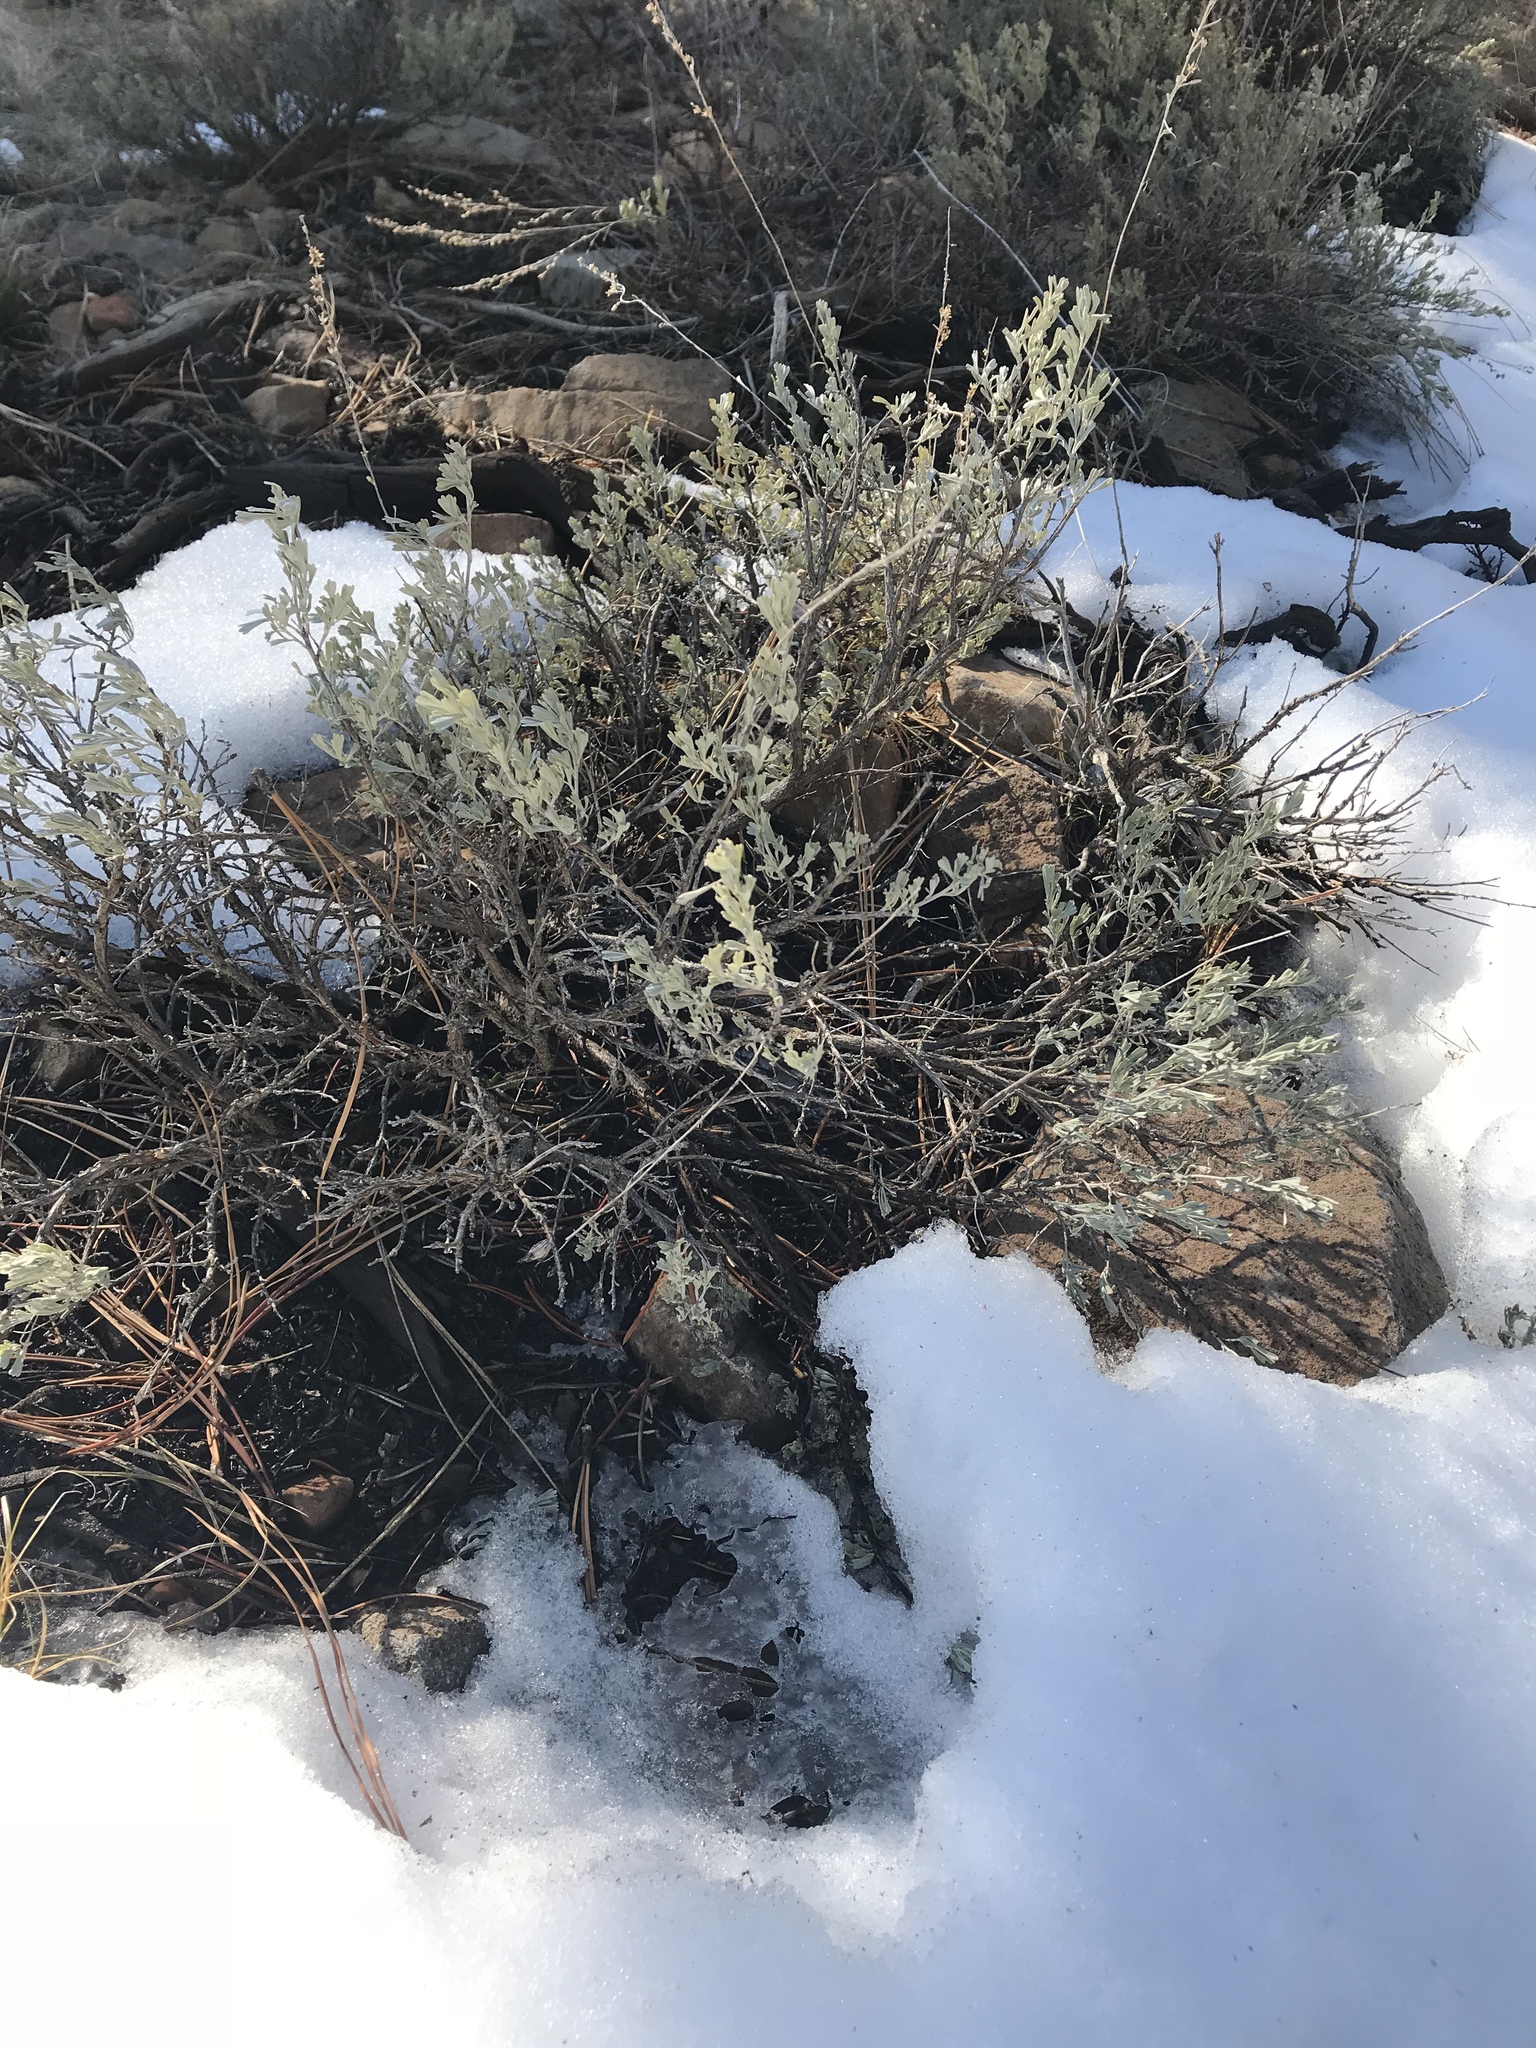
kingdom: Plantae
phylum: Tracheophyta
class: Magnoliopsida
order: Asterales
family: Asteraceae
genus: Artemisia
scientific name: Artemisia tridentata
